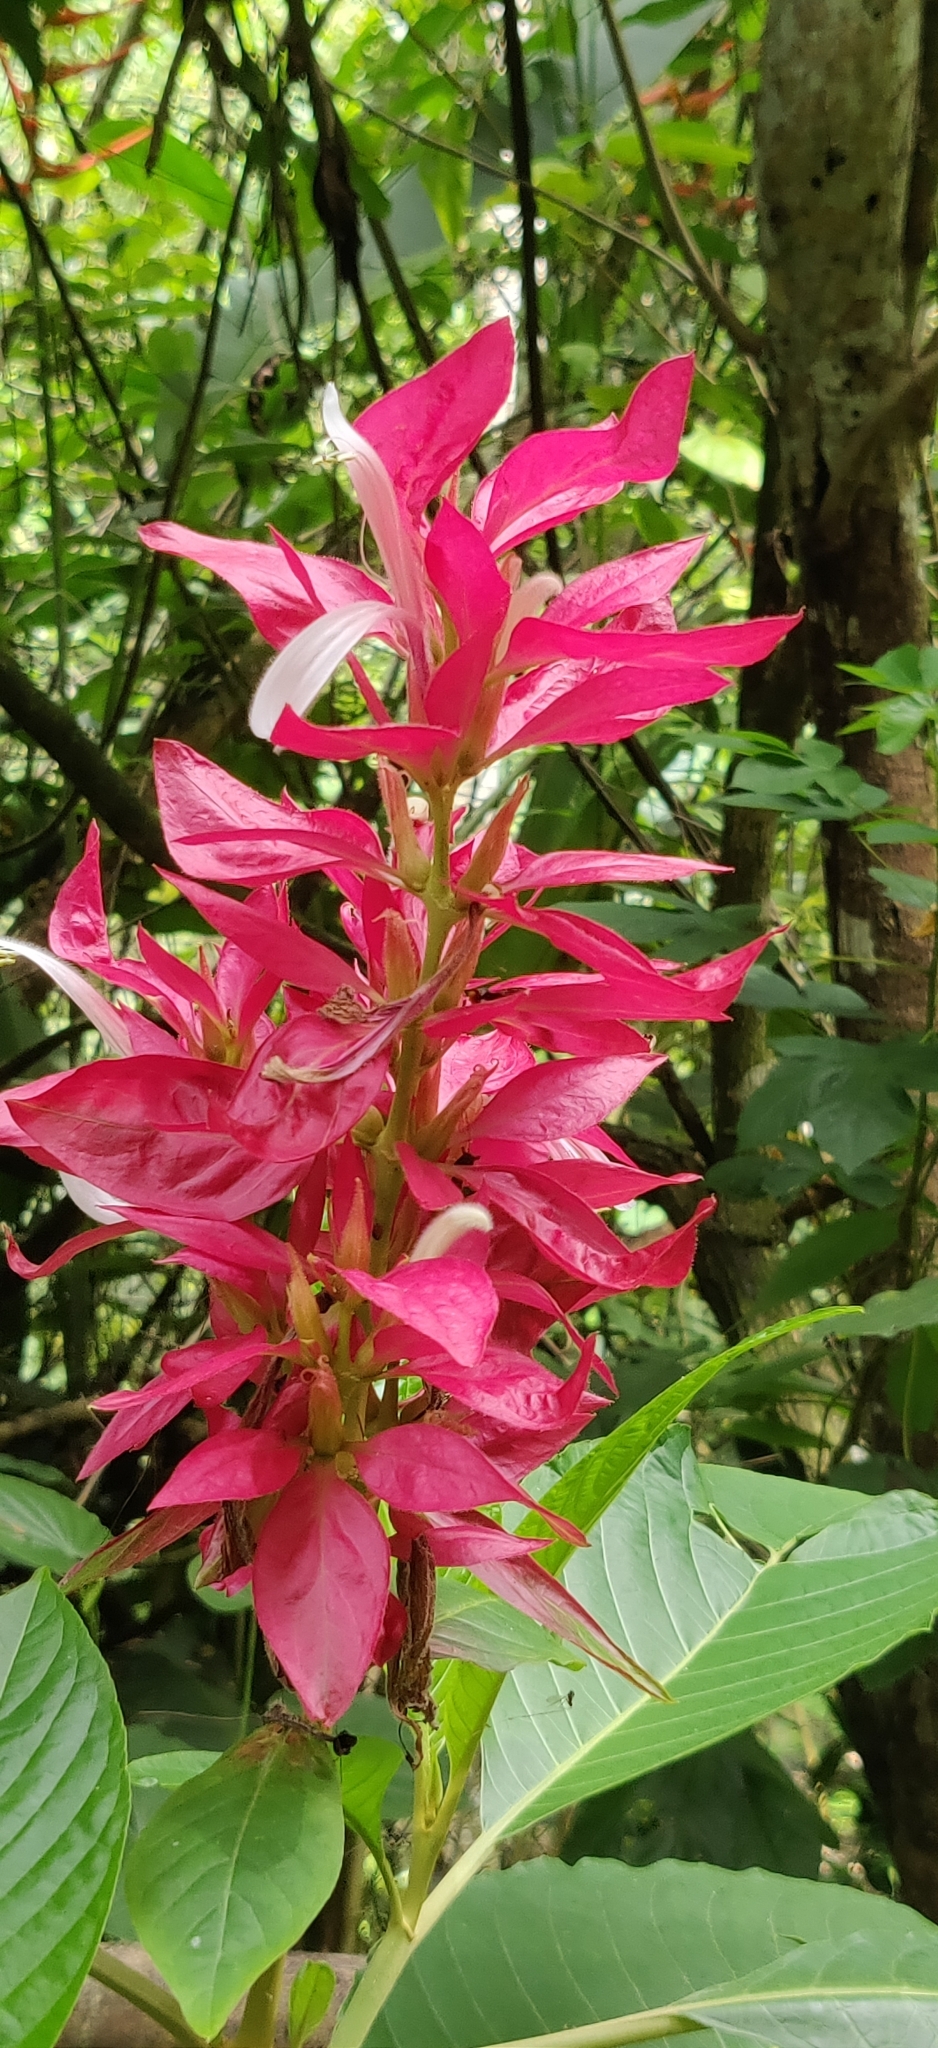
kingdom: Plantae
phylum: Tracheophyta
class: Magnoliopsida
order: Lamiales
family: Acanthaceae
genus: Megaskepasma
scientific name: Megaskepasma erythrochlamys
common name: Brazilian red-cloak
